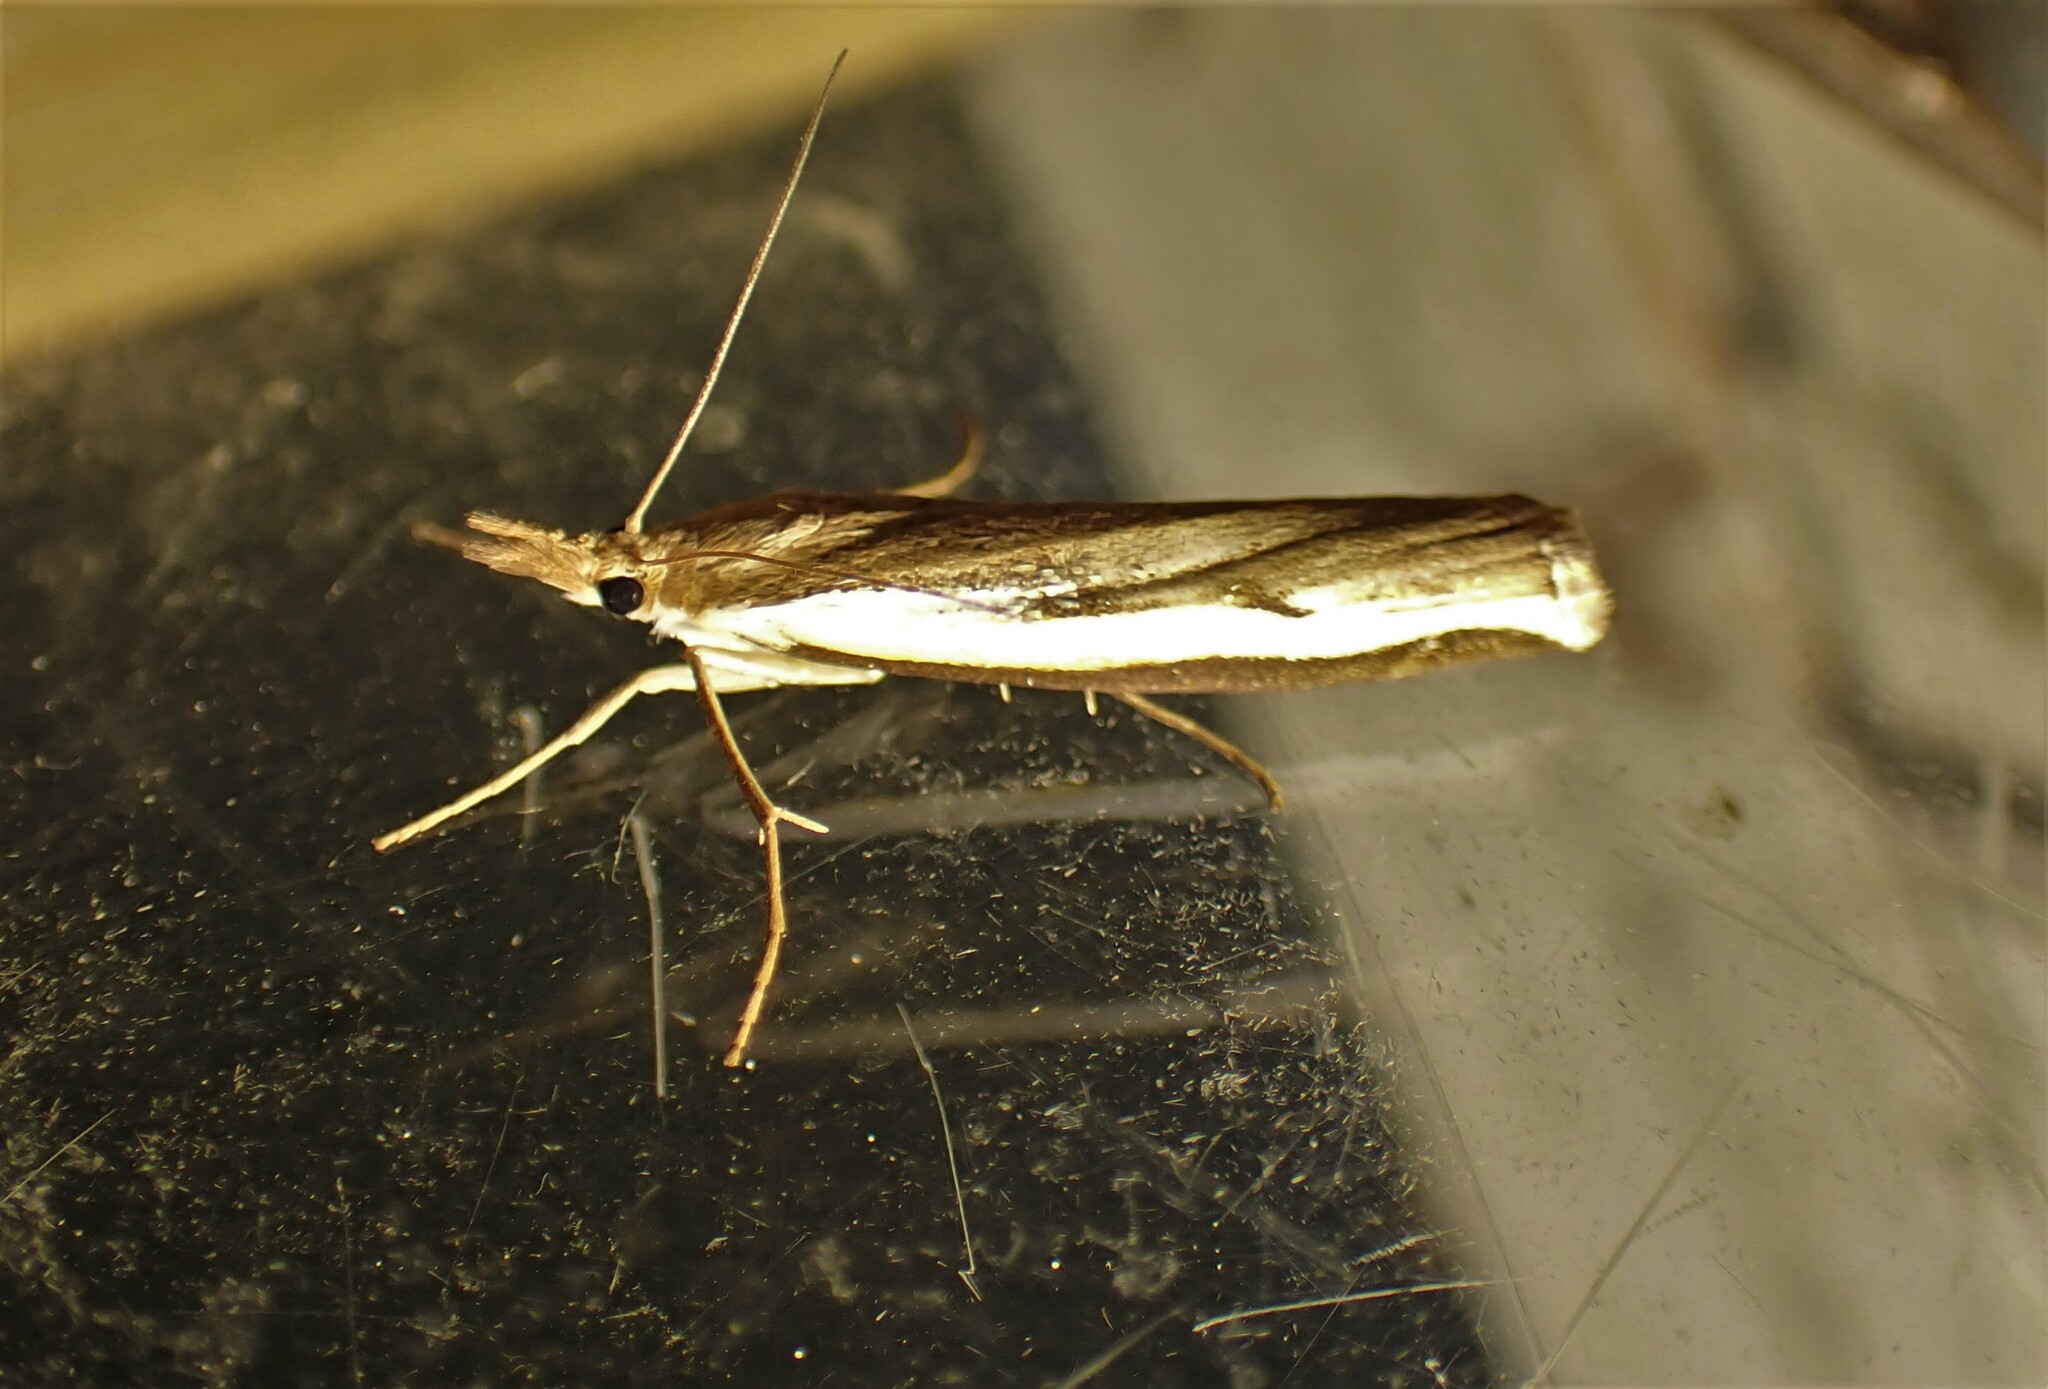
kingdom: Animalia
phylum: Arthropoda
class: Insecta
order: Lepidoptera
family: Crambidae
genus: Orocrambus
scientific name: Orocrambus flexuosellus
